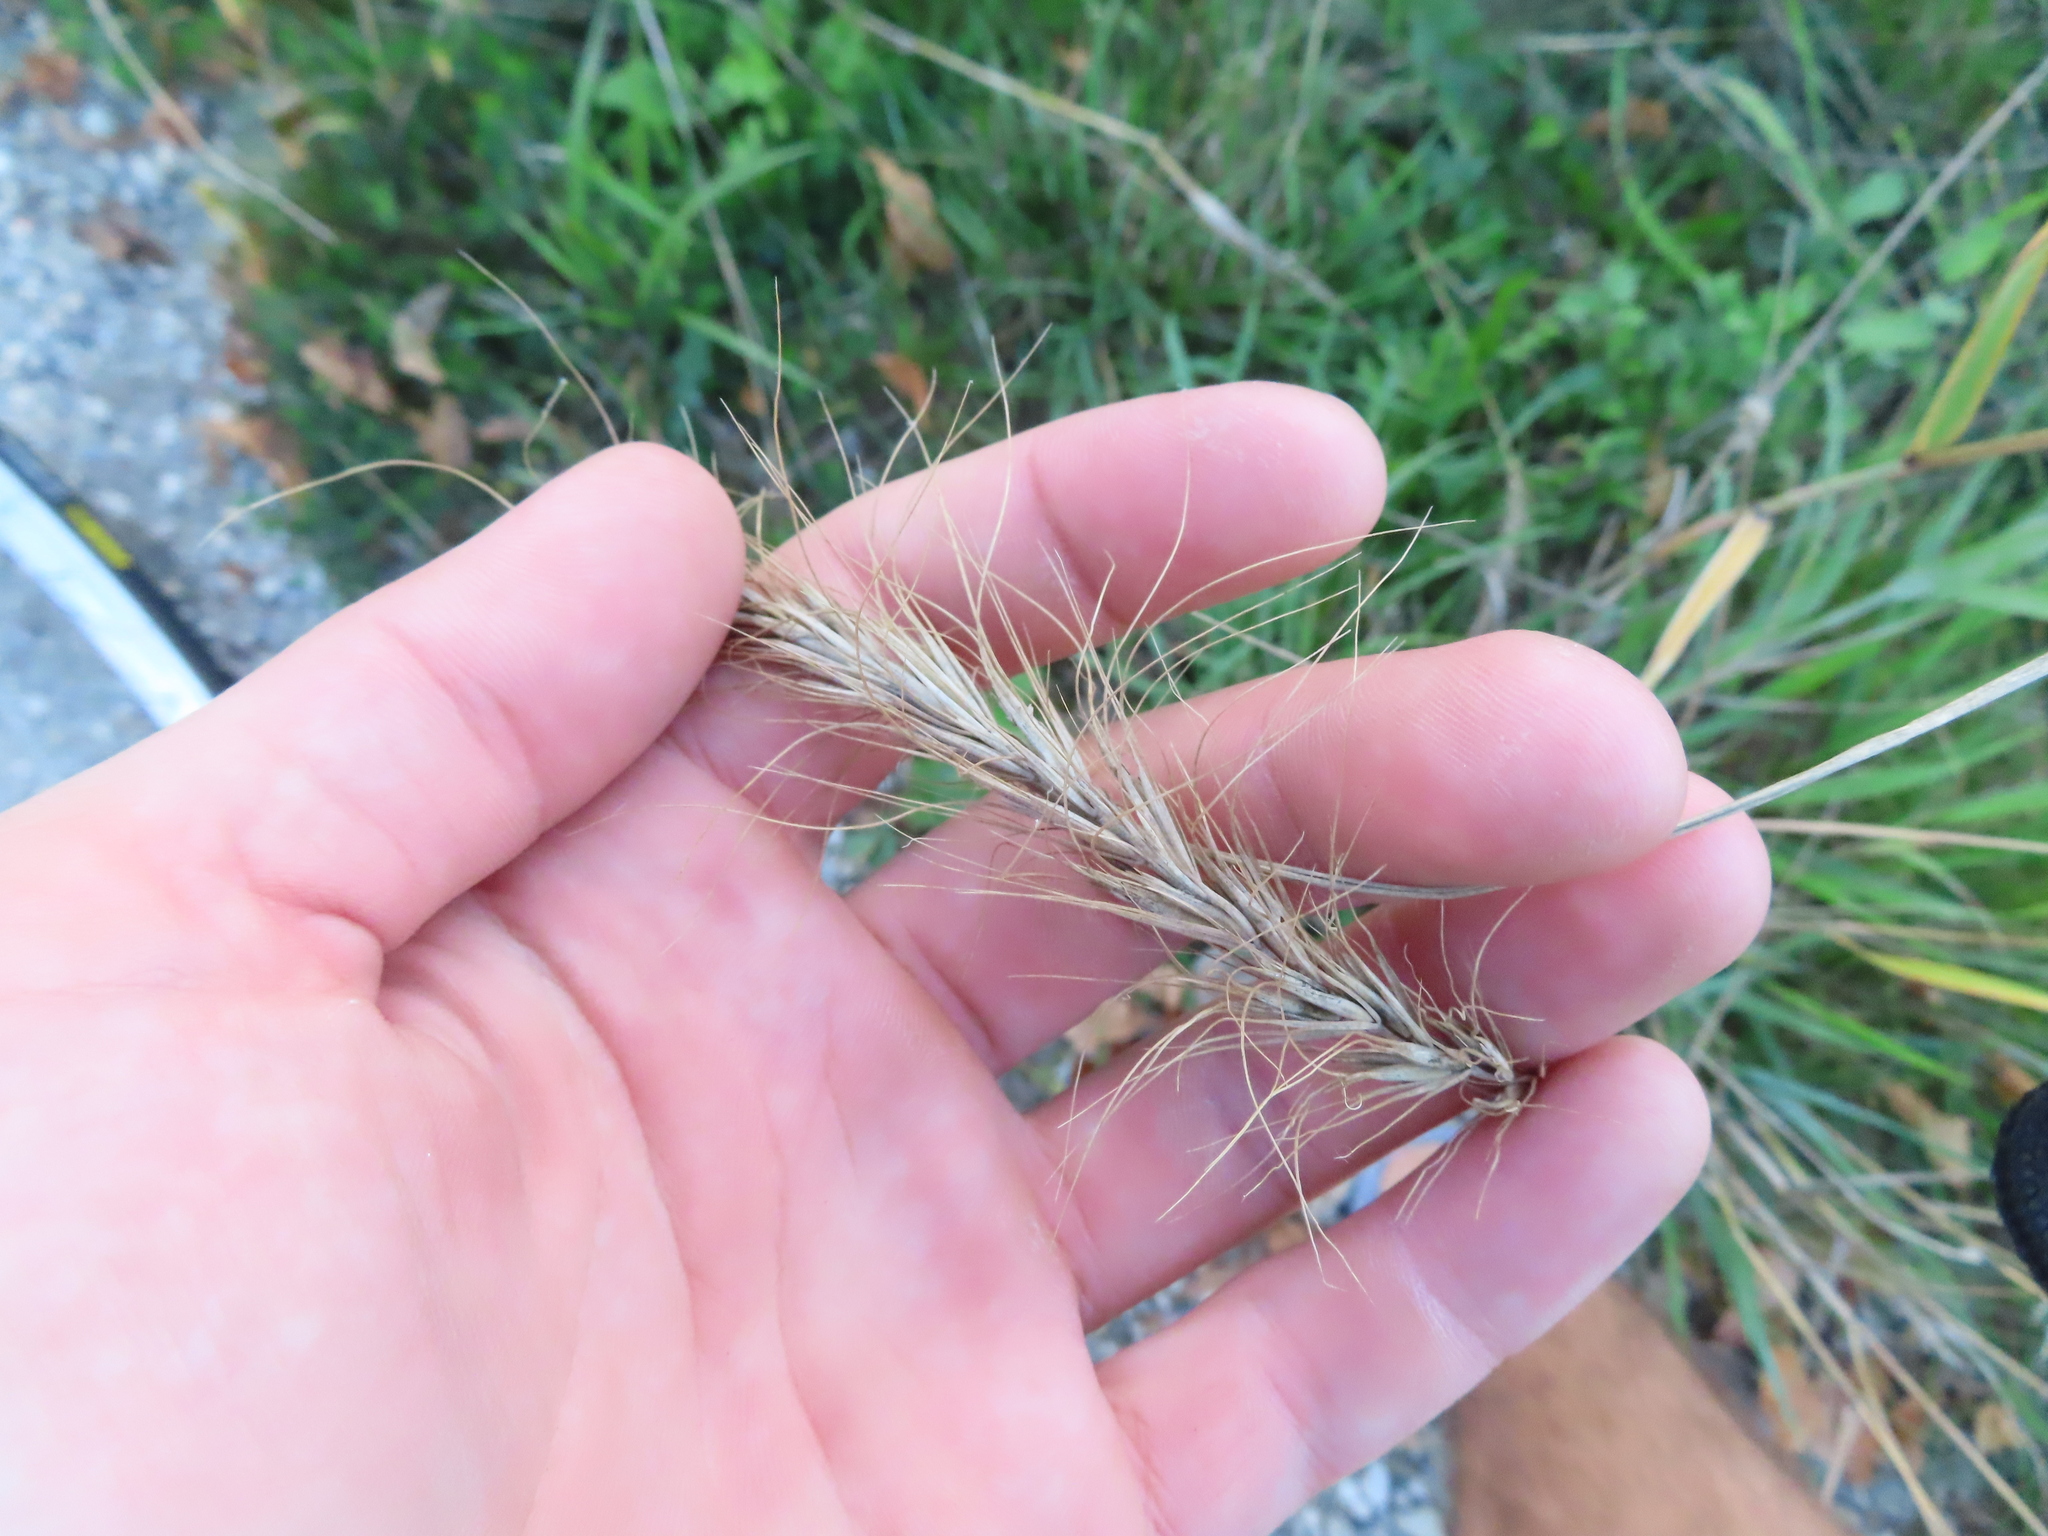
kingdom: Plantae
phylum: Tracheophyta
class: Liliopsida
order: Poales
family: Poaceae
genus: Elymus
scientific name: Elymus canadensis
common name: Canada wild rye
